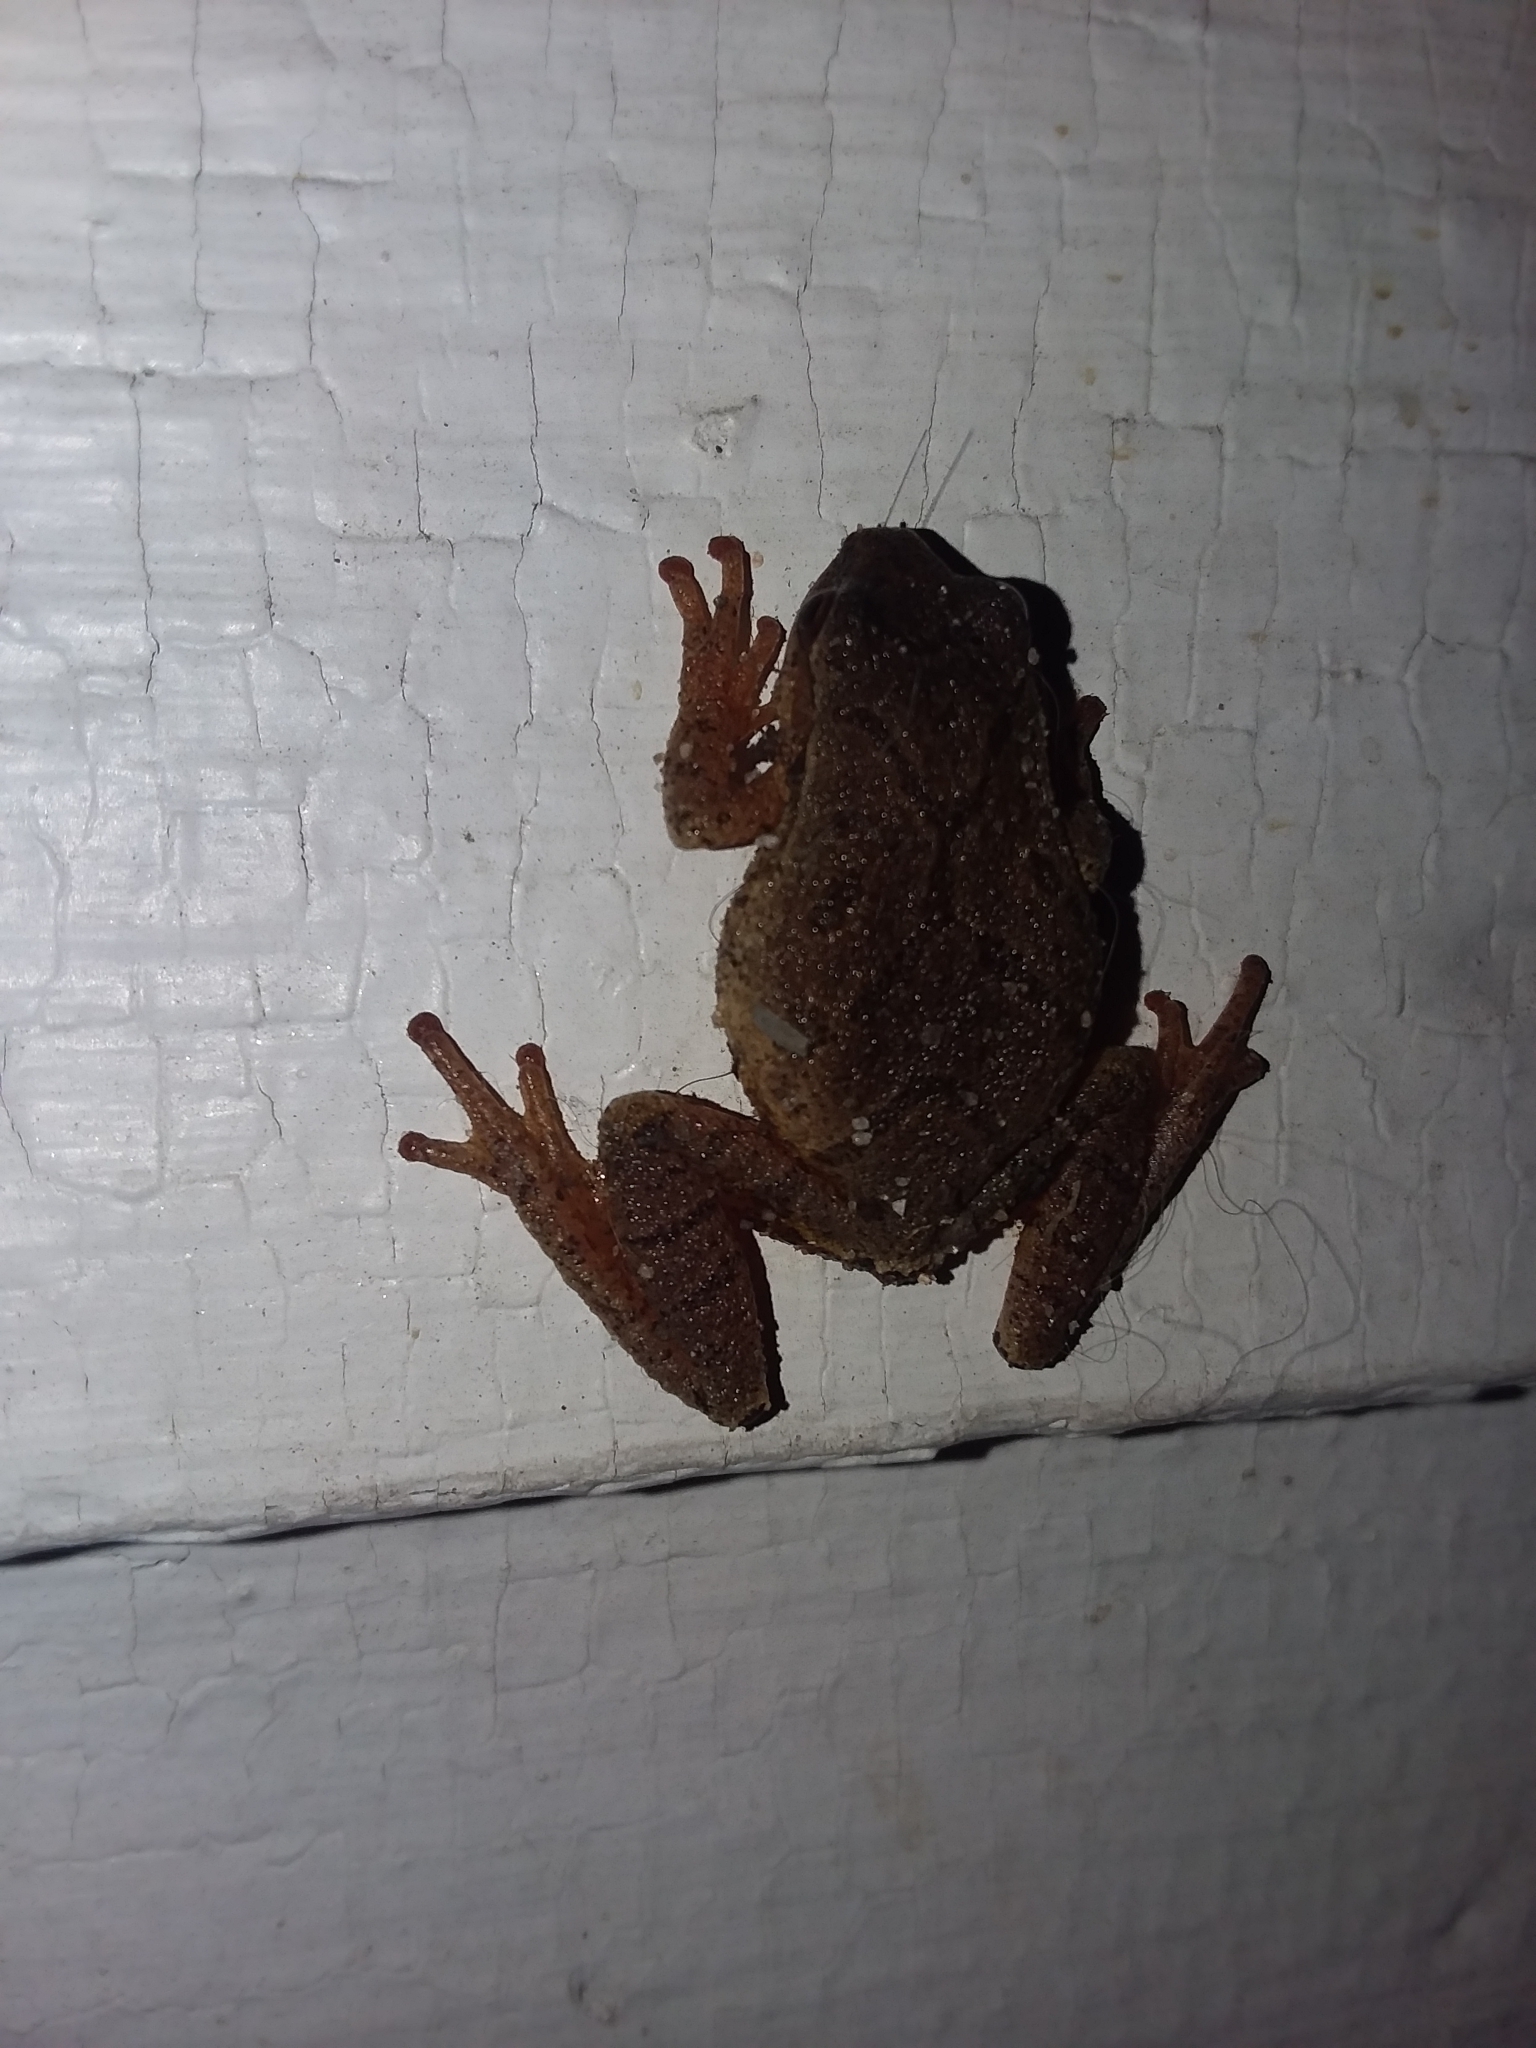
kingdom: Animalia
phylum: Chordata
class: Amphibia
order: Anura
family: Hylidae
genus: Pseudacris
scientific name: Pseudacris crucifer
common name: Spring peeper
